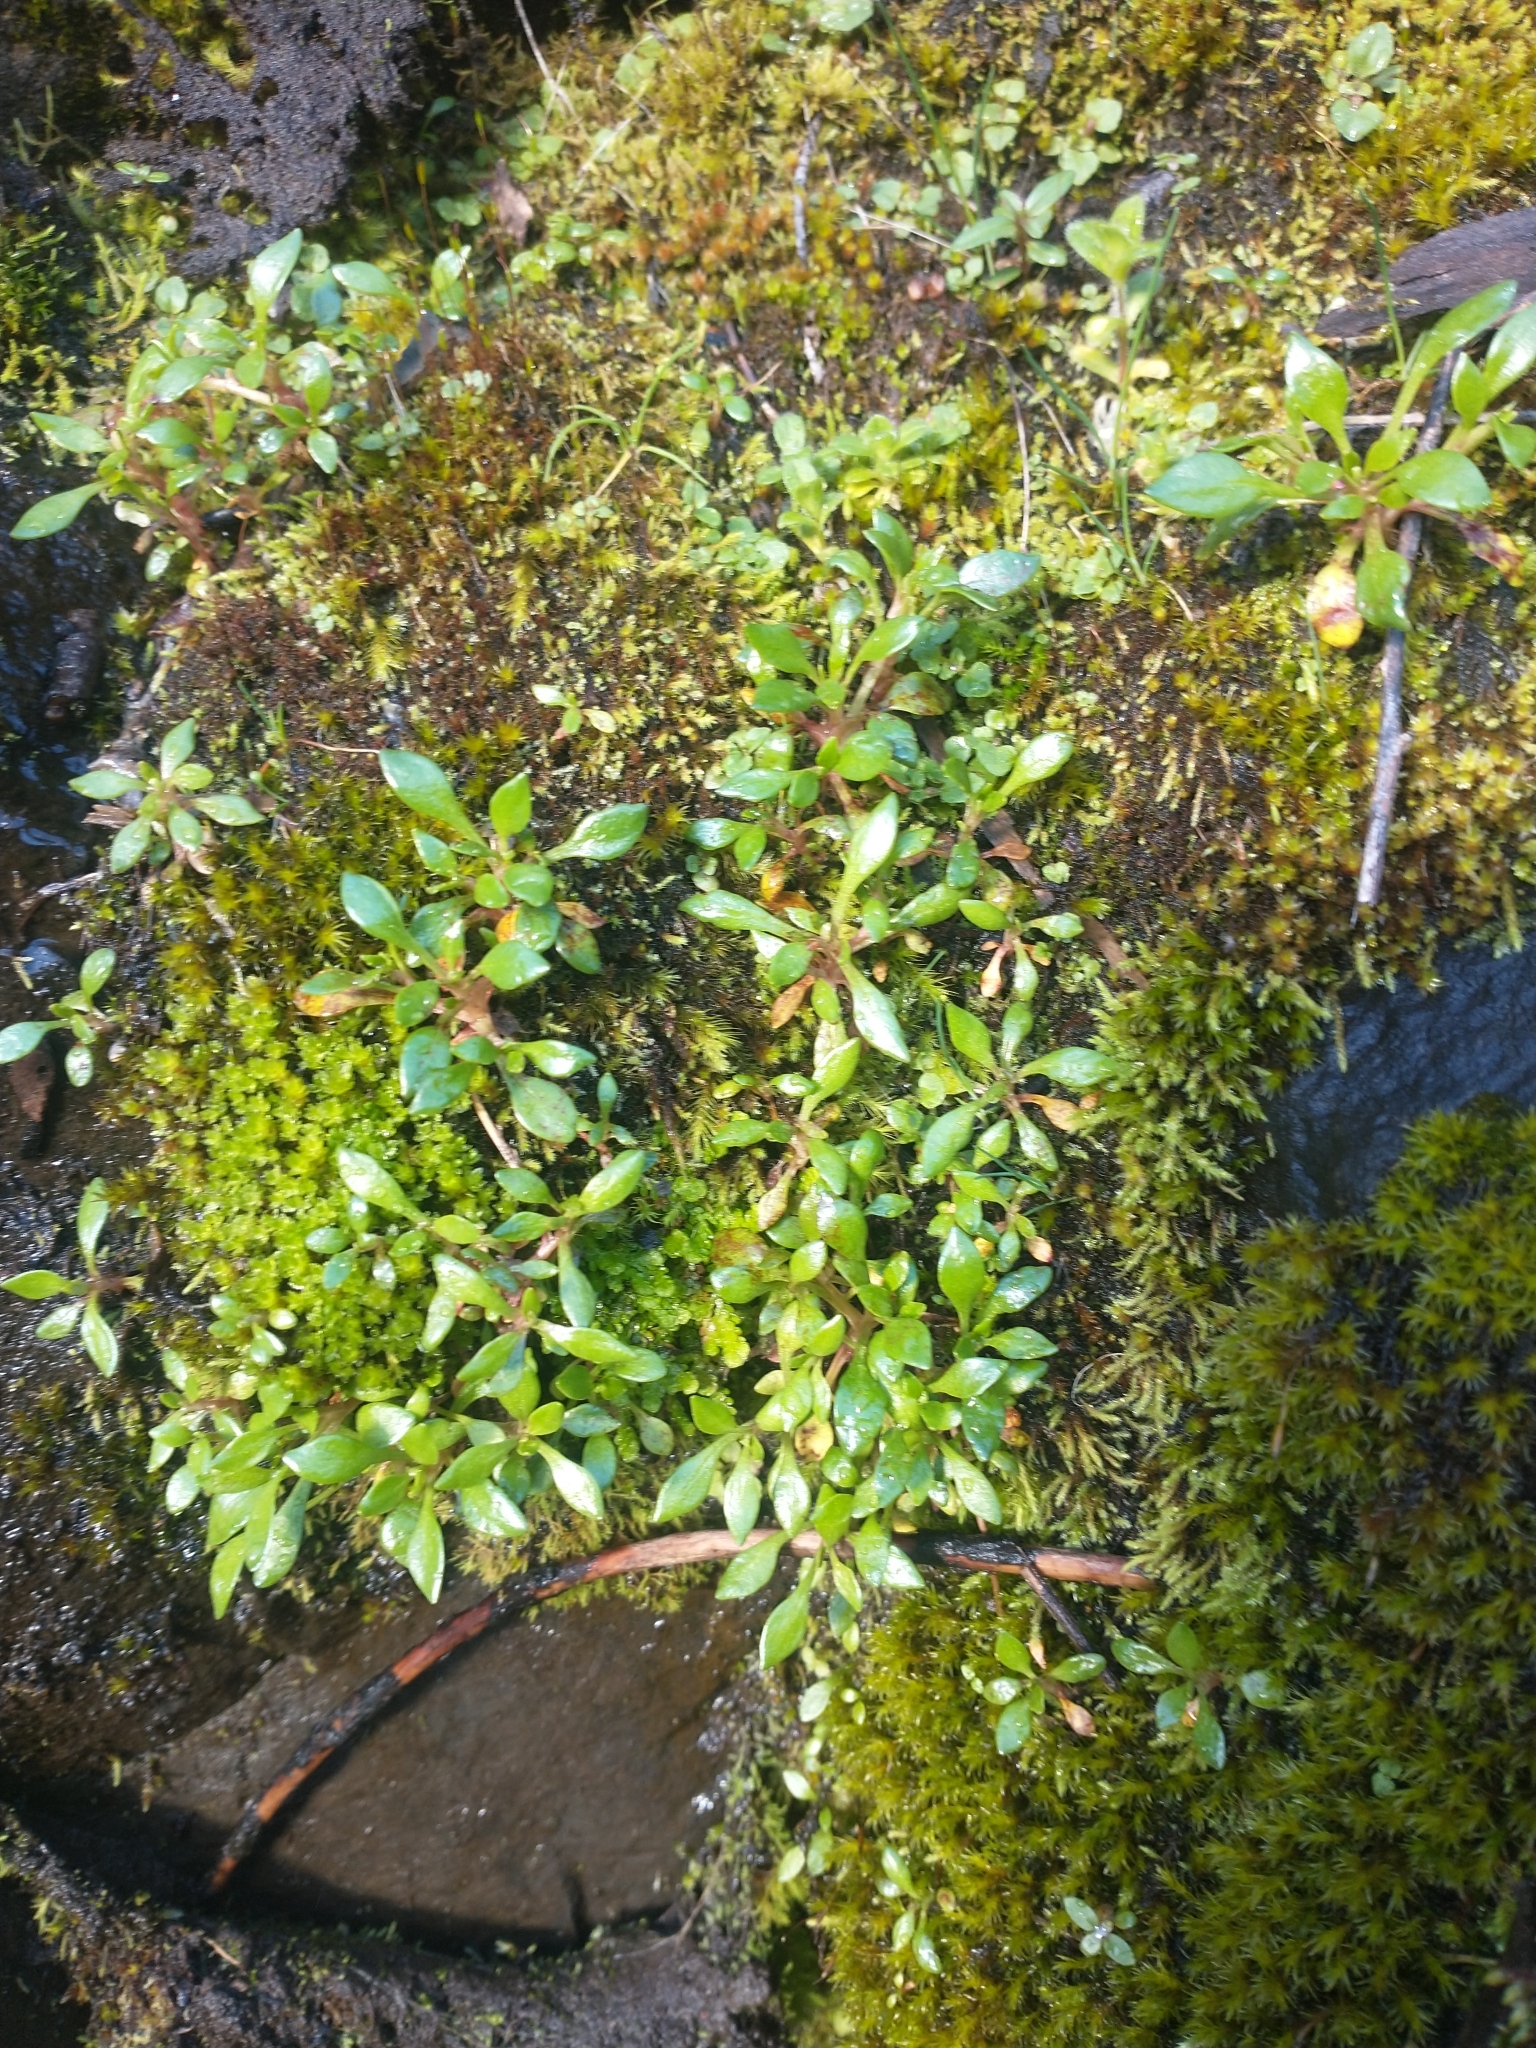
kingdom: Plantae
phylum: Tracheophyta
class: Magnoliopsida
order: Caryophyllales
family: Montiaceae
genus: Montia
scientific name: Montia parvifolia
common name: Small-leaved blinks
